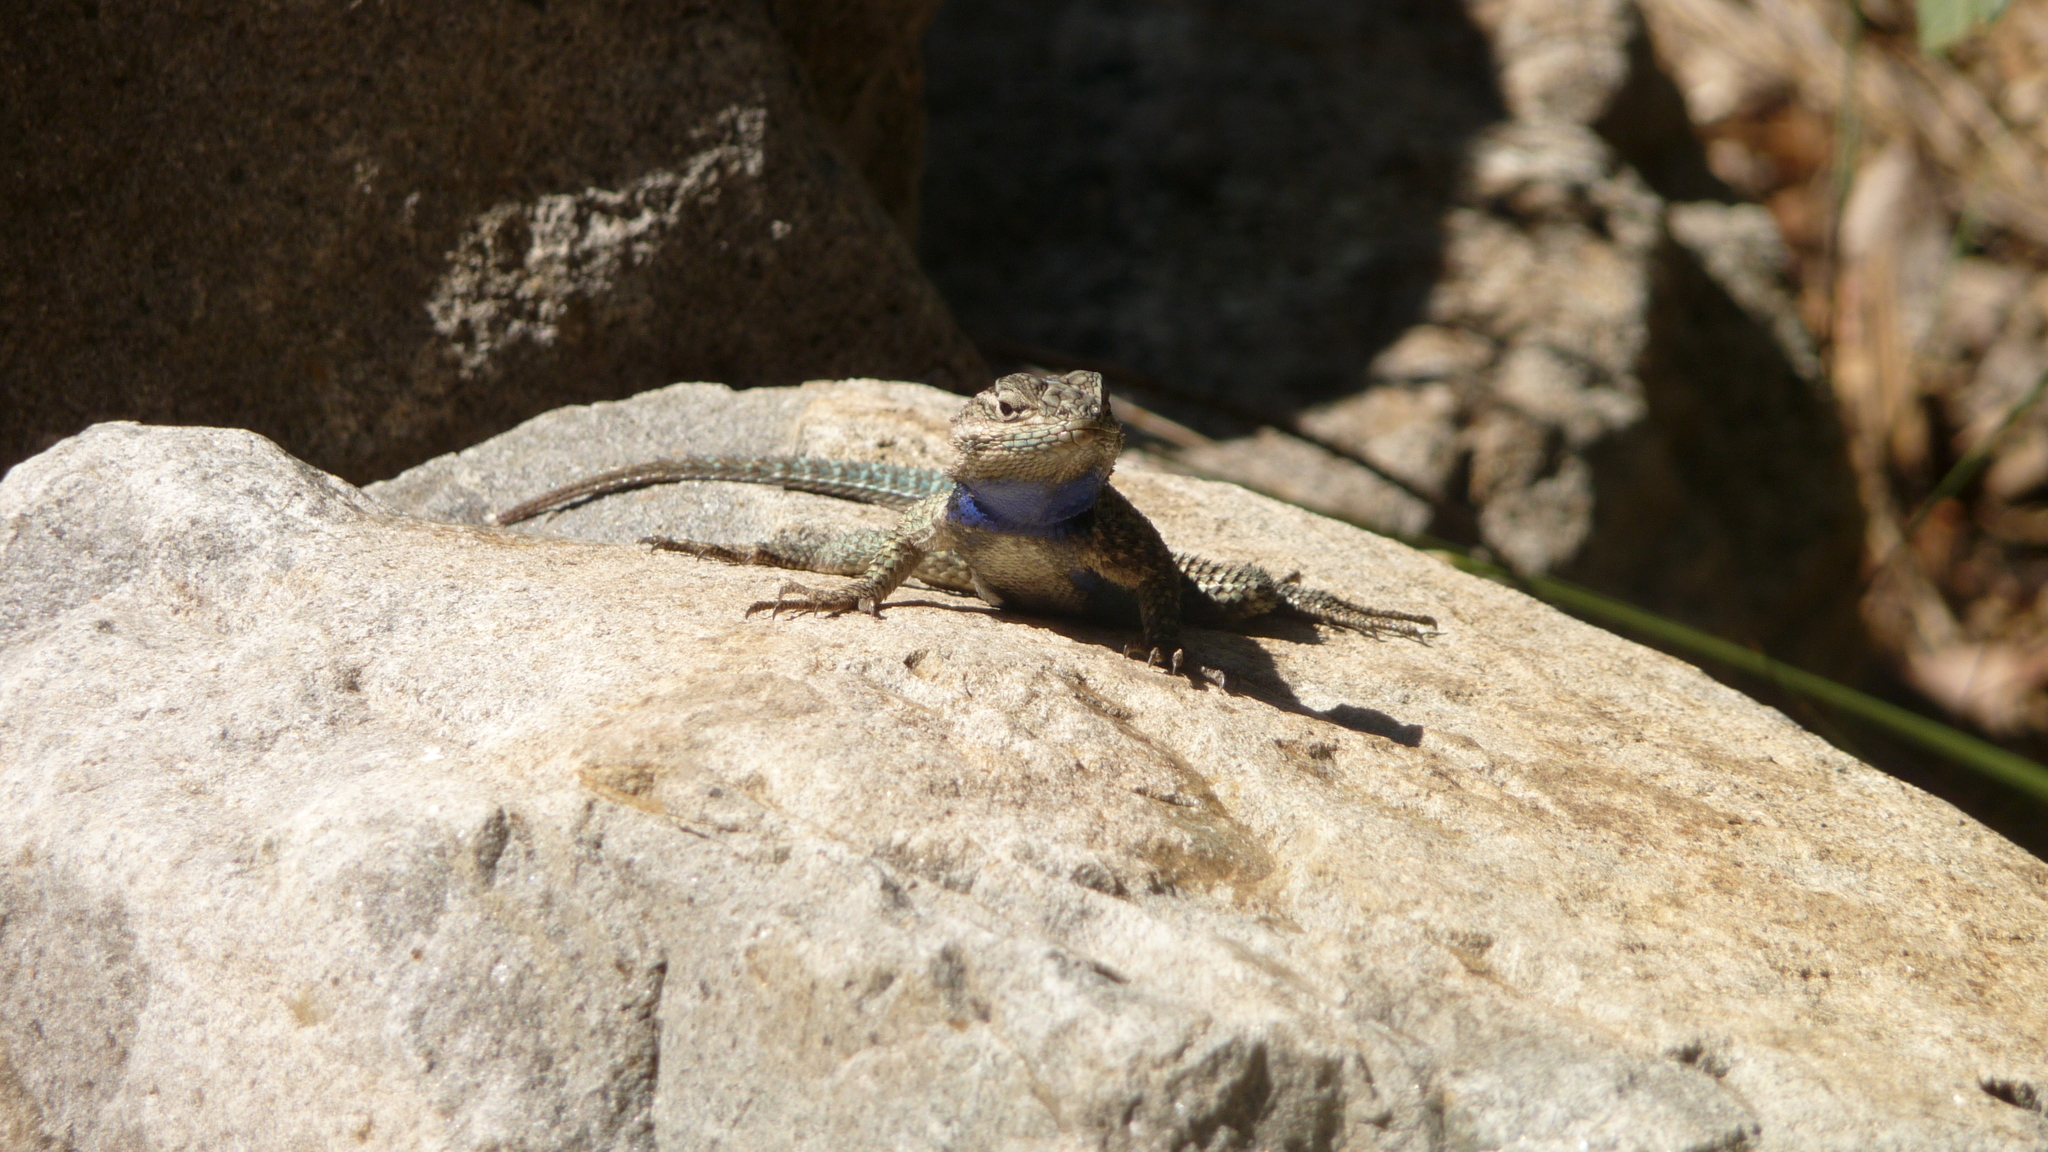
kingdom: Animalia
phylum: Chordata
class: Squamata
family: Phrynosomatidae
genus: Sceloporus
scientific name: Sceloporus jarrovii
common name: Yarrow's spiny lizard
